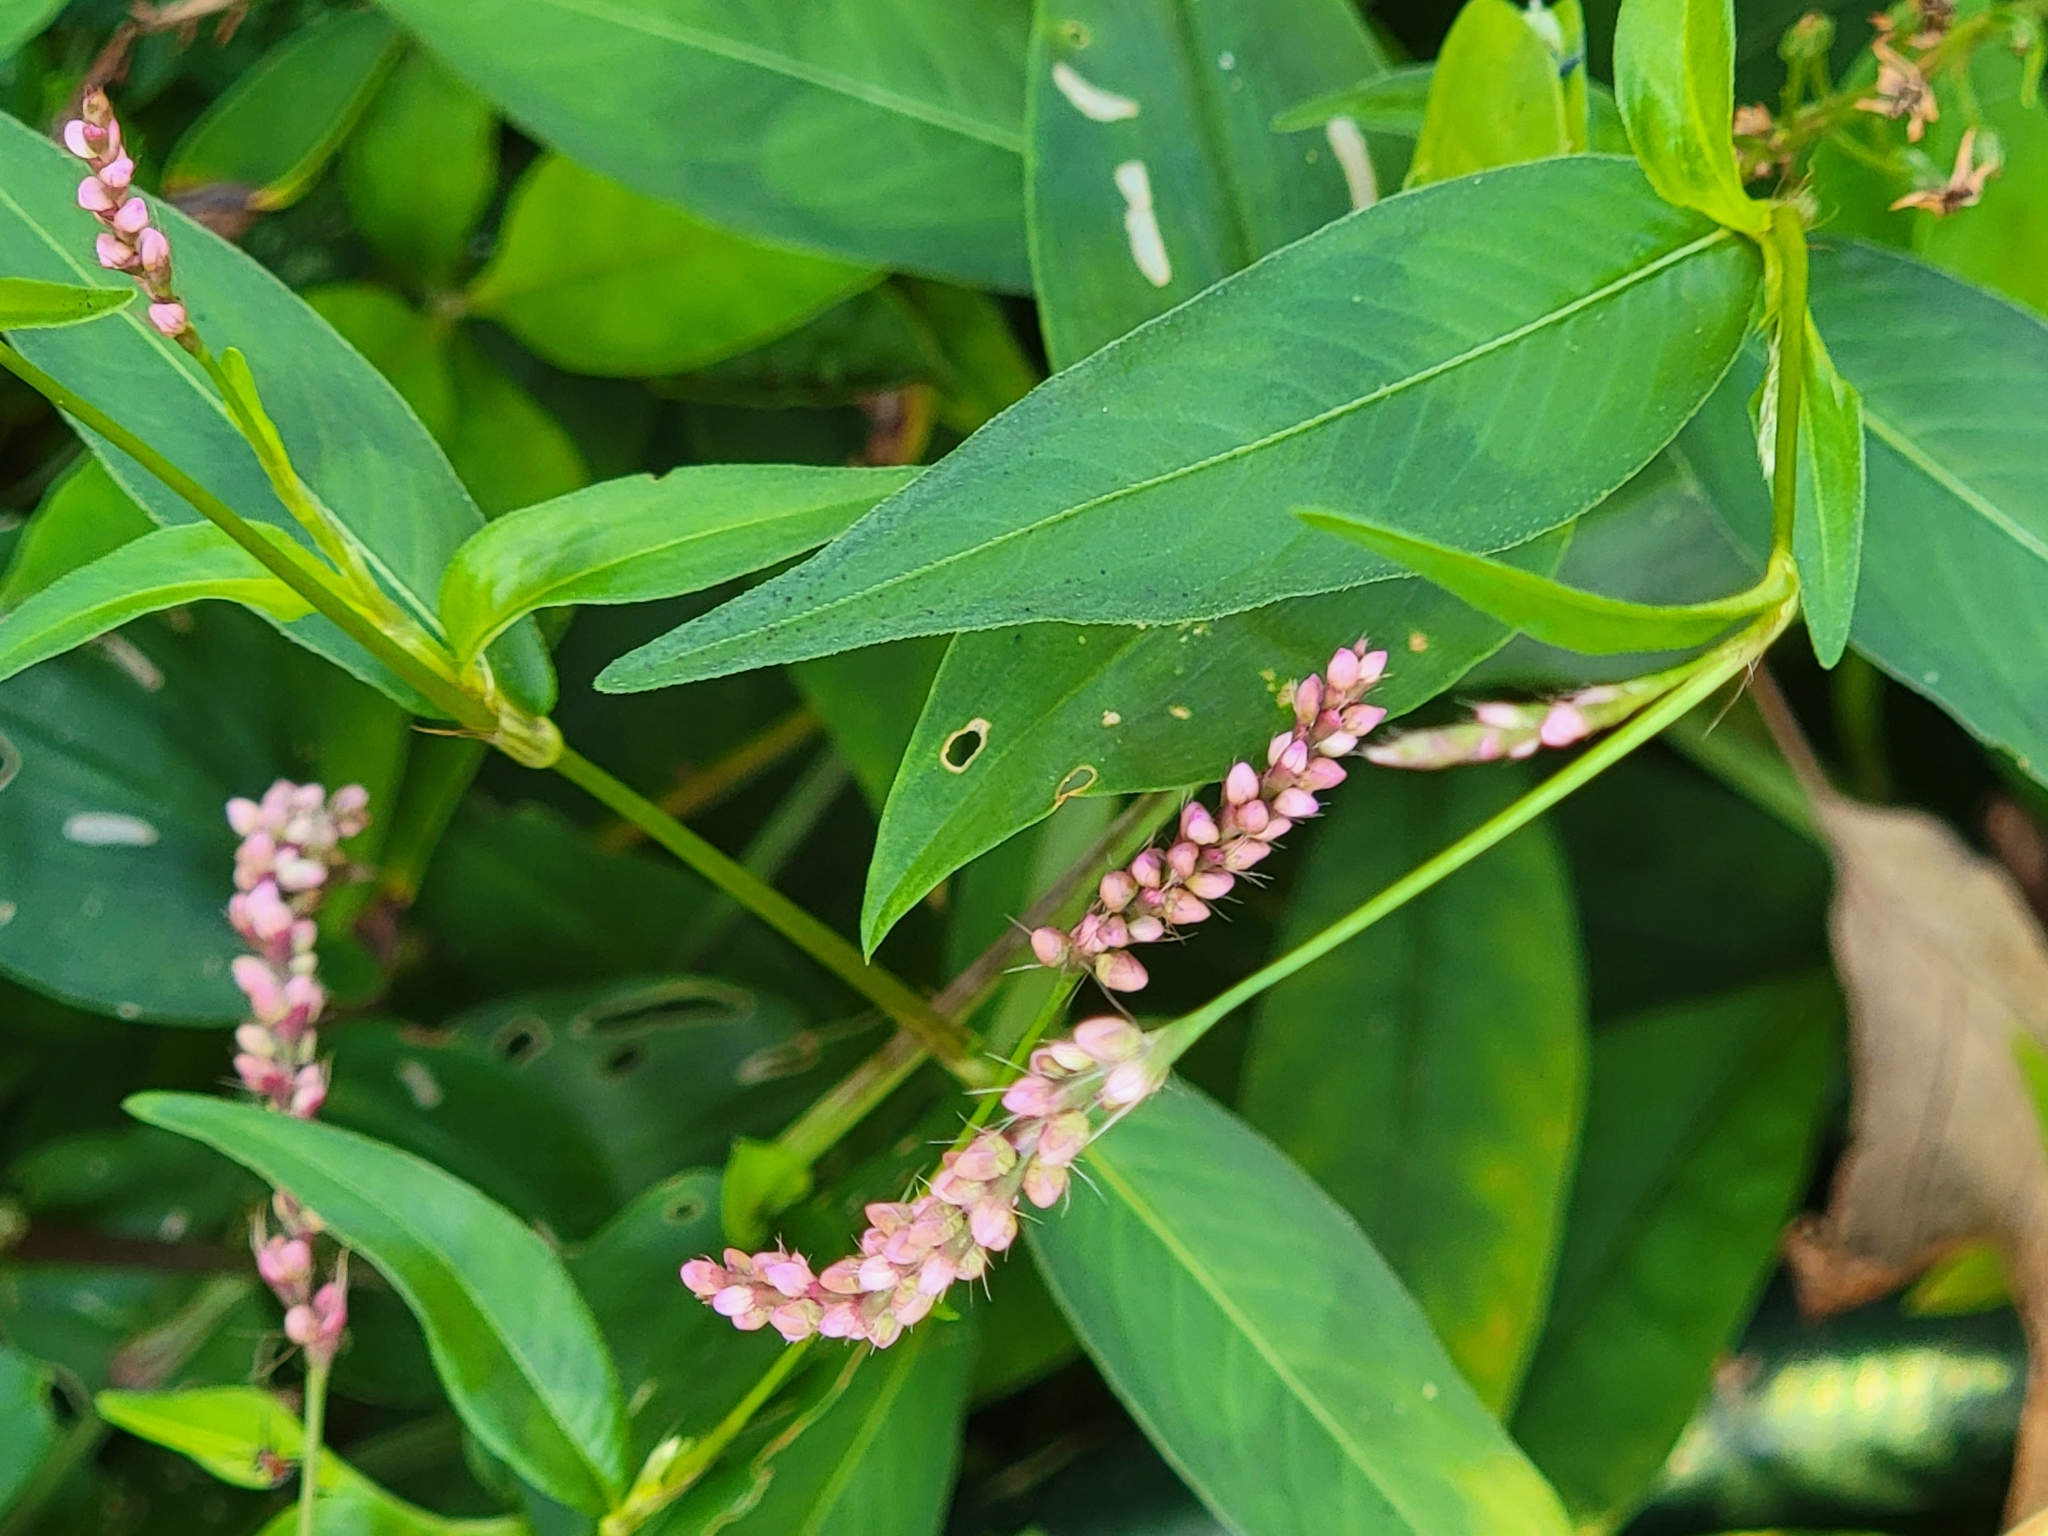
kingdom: Plantae
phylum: Tracheophyta
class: Magnoliopsida
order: Caryophyllales
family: Polygonaceae
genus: Persicaria
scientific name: Persicaria longiseta
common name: Bristly lady's-thumb
